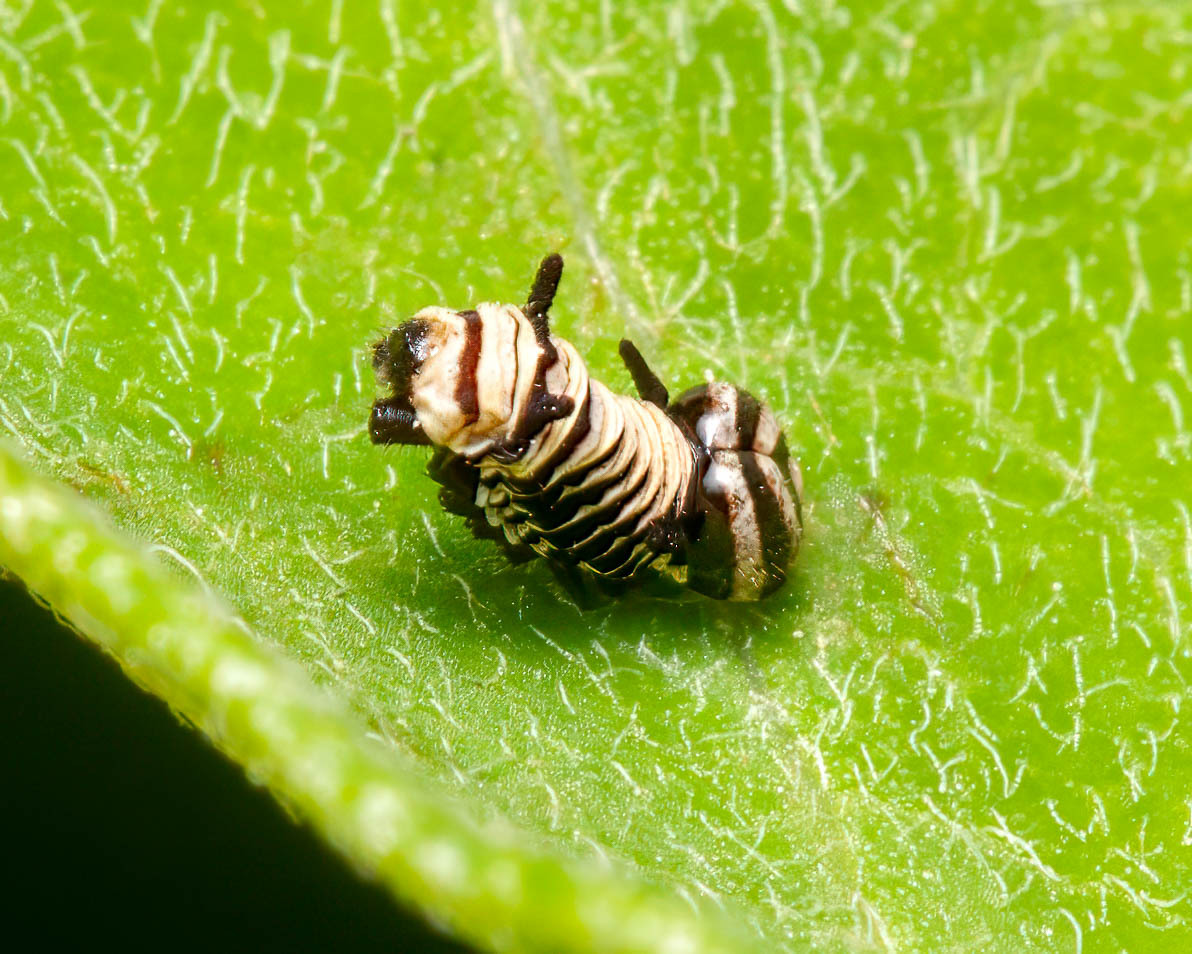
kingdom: Animalia
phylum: Arthropoda
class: Insecta
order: Lepidoptera
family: Nymphalidae
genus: Danaus
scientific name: Danaus plexippus
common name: Monarch
